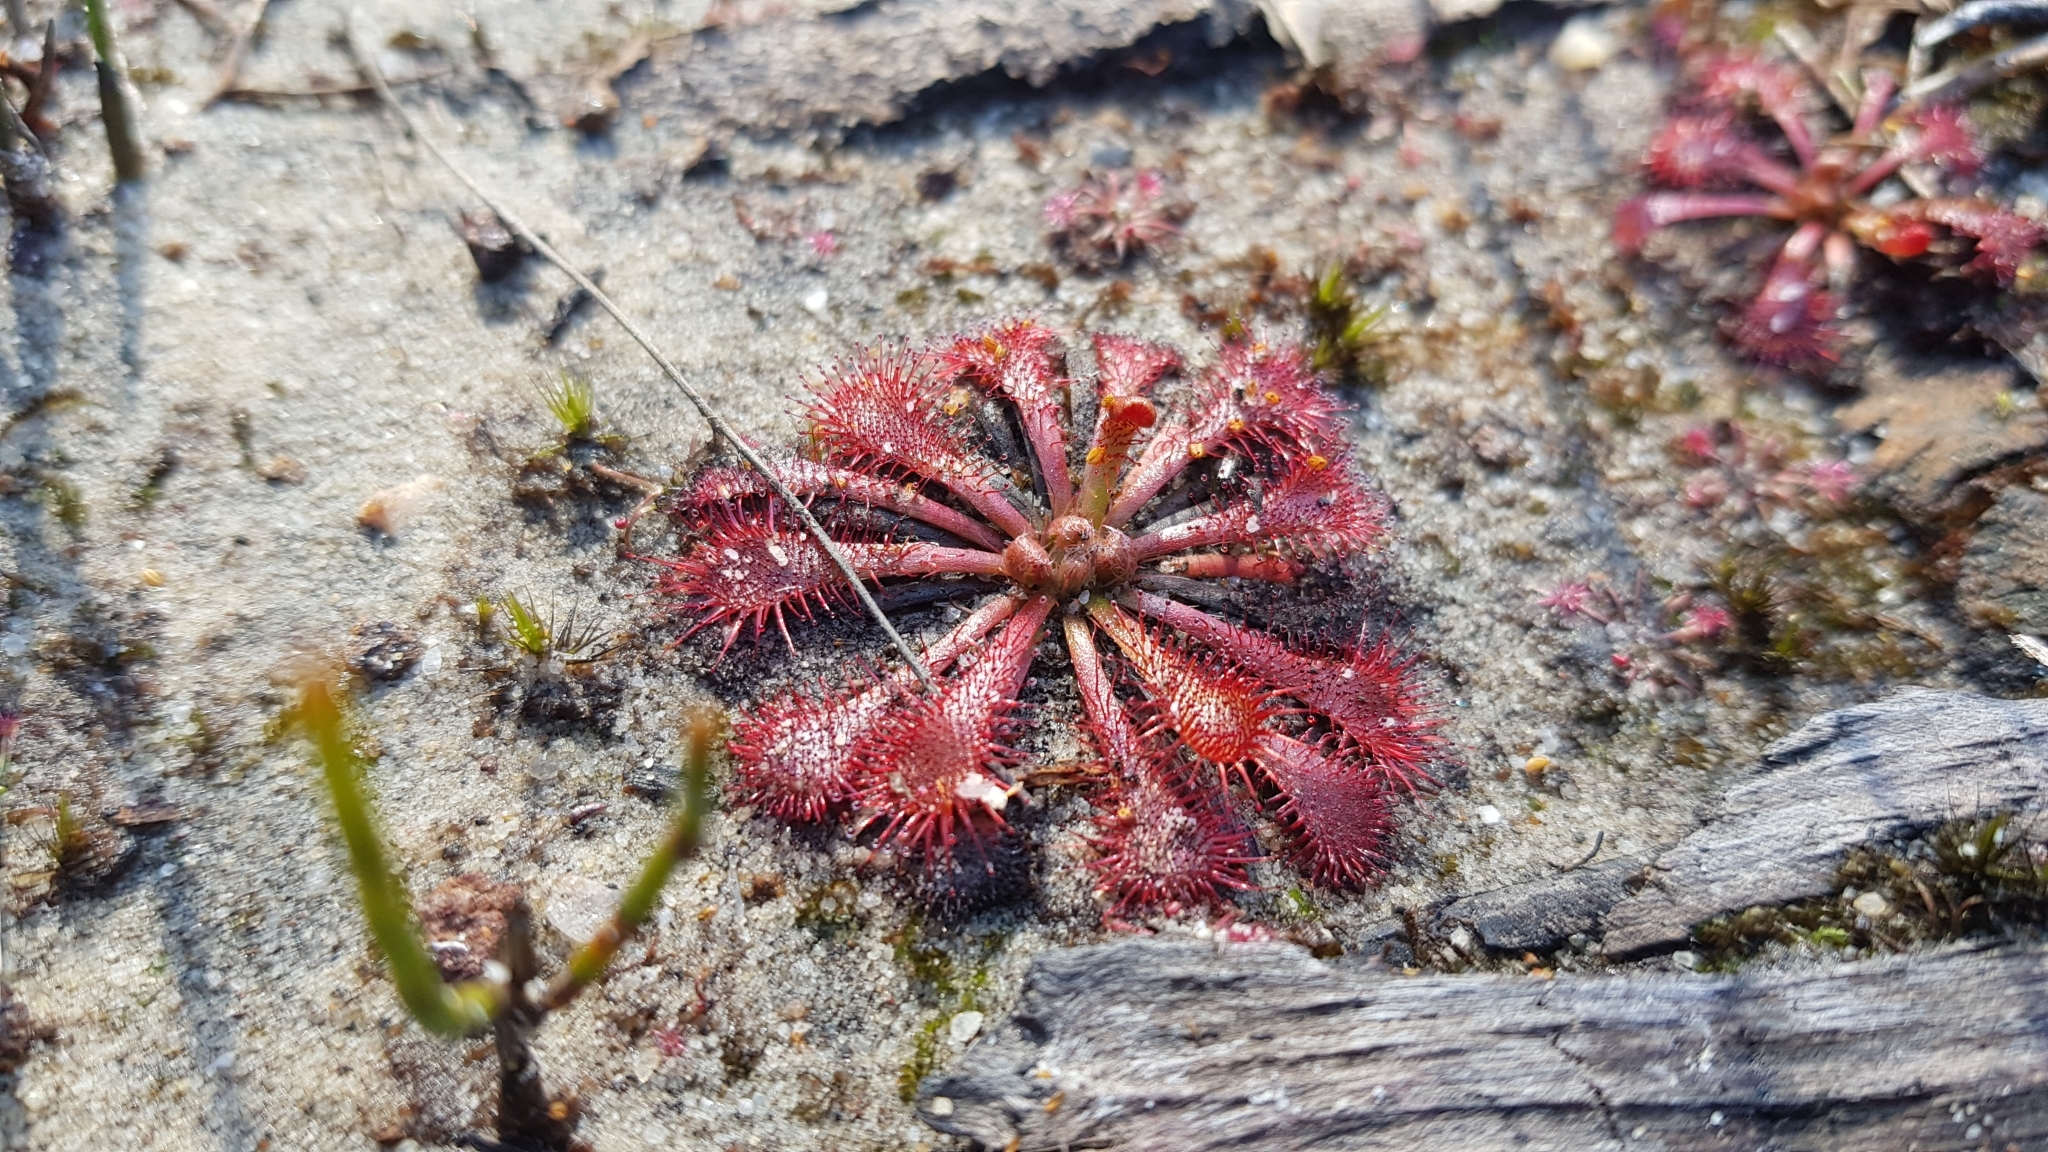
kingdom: Plantae
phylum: Tracheophyta
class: Magnoliopsida
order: Caryophyllales
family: Droseraceae
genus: Drosera
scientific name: Drosera spatulata
